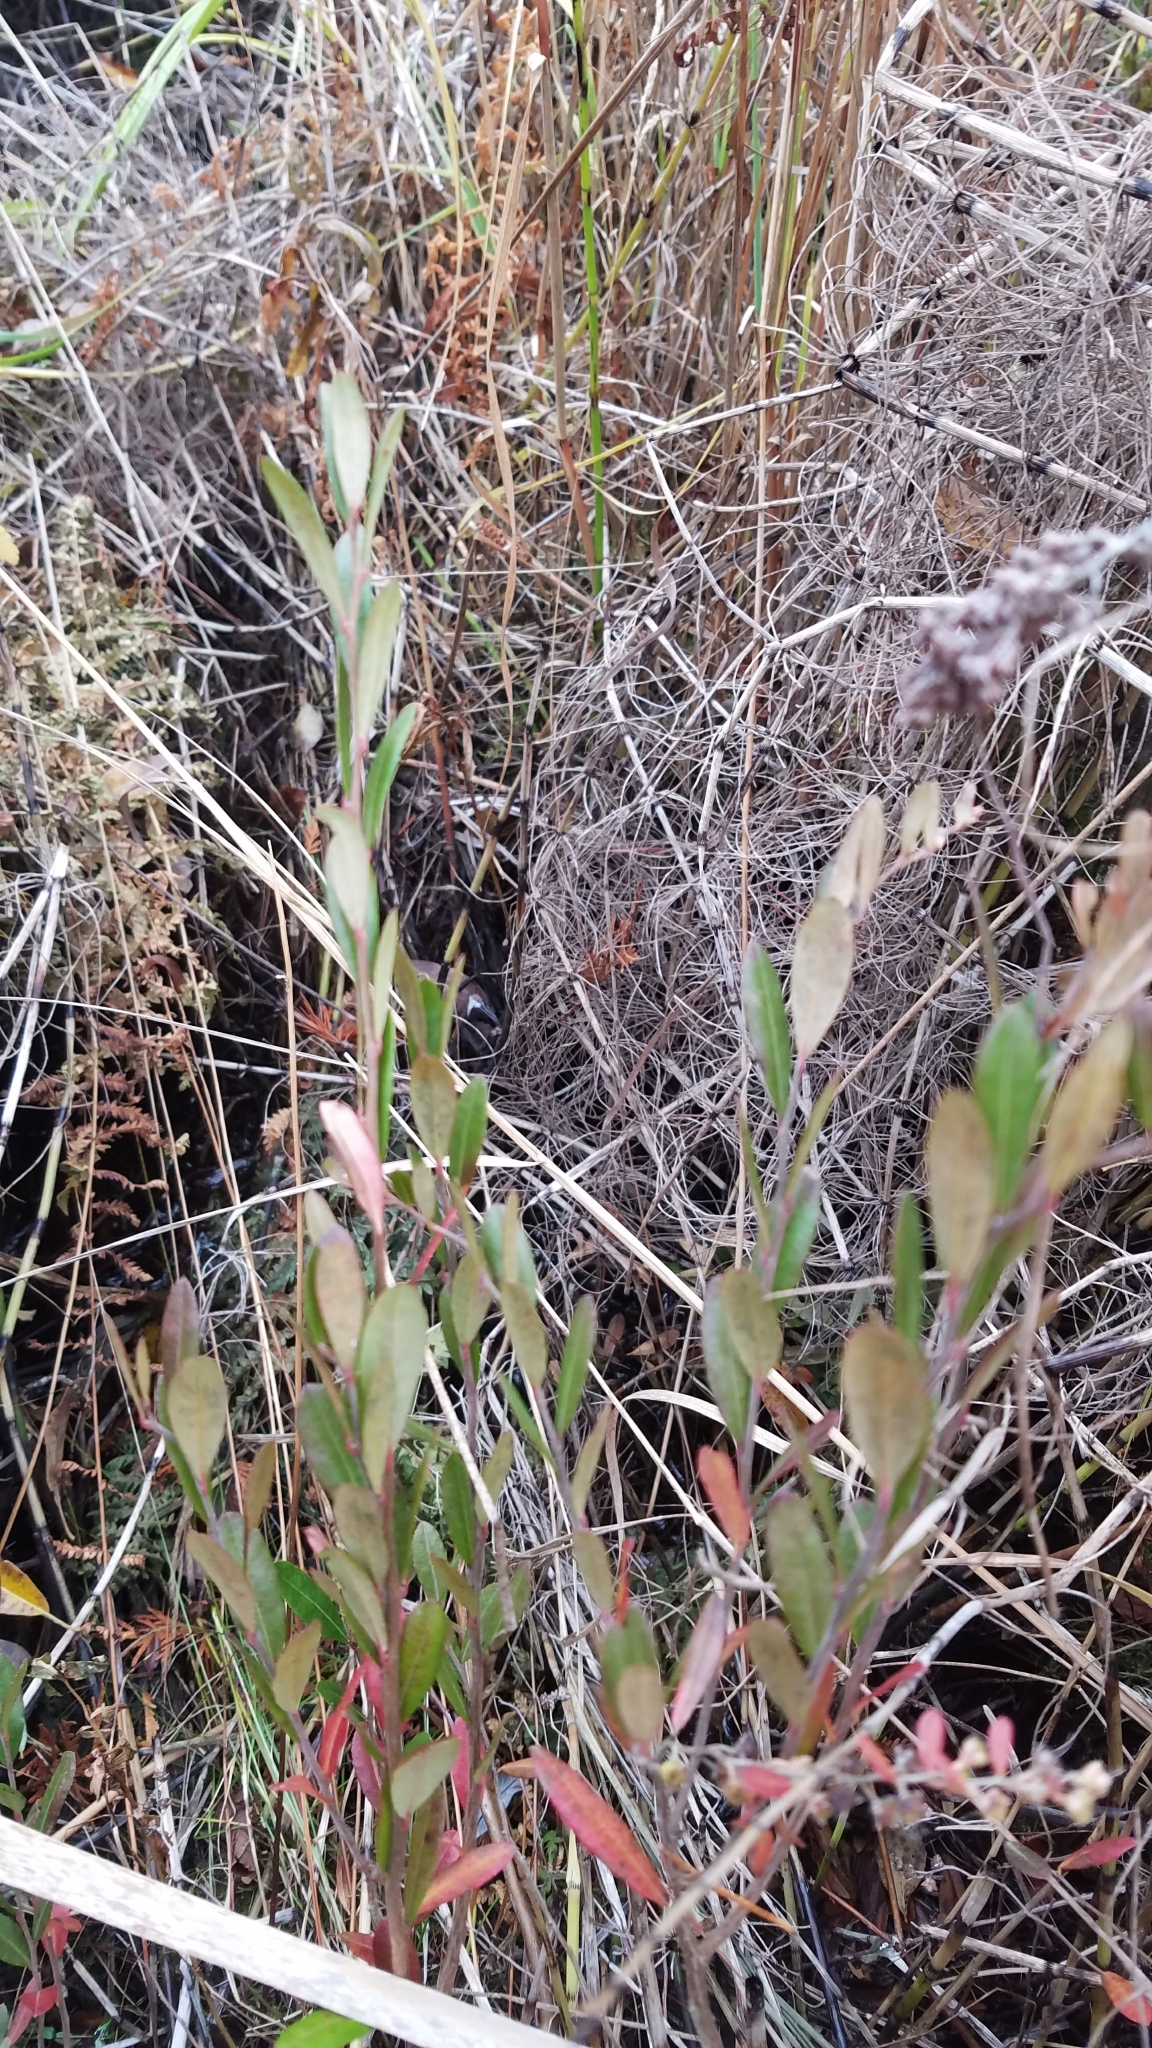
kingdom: Plantae
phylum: Tracheophyta
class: Magnoliopsida
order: Ericales
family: Ericaceae
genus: Chamaedaphne
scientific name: Chamaedaphne calyculata
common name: Leatherleaf
